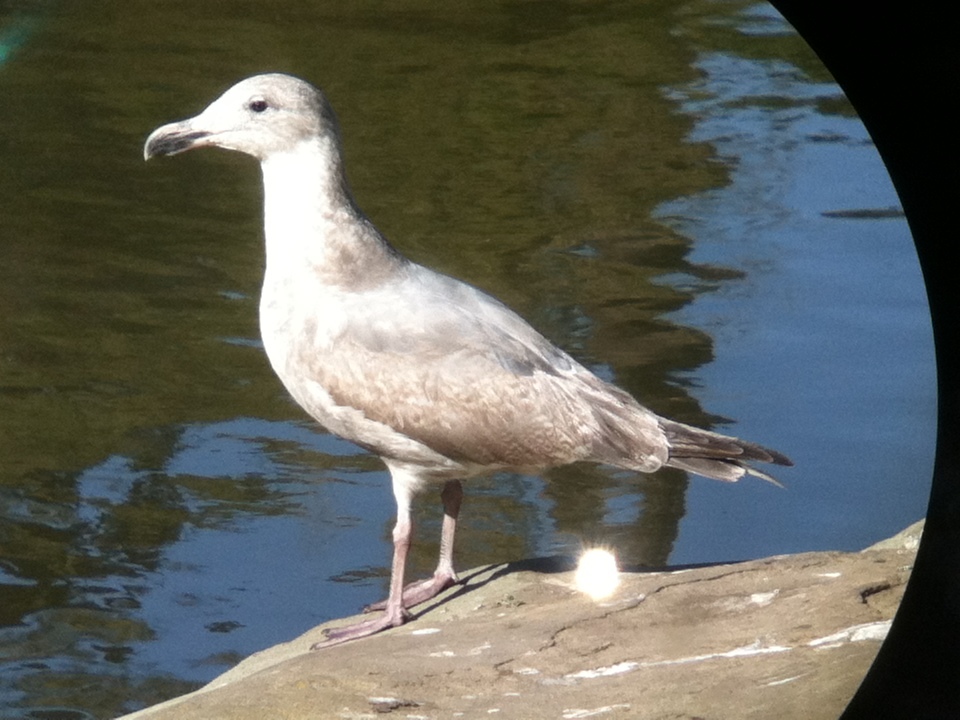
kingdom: Animalia
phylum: Chordata
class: Aves
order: Charadriiformes
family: Laridae
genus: Larus
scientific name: Larus
